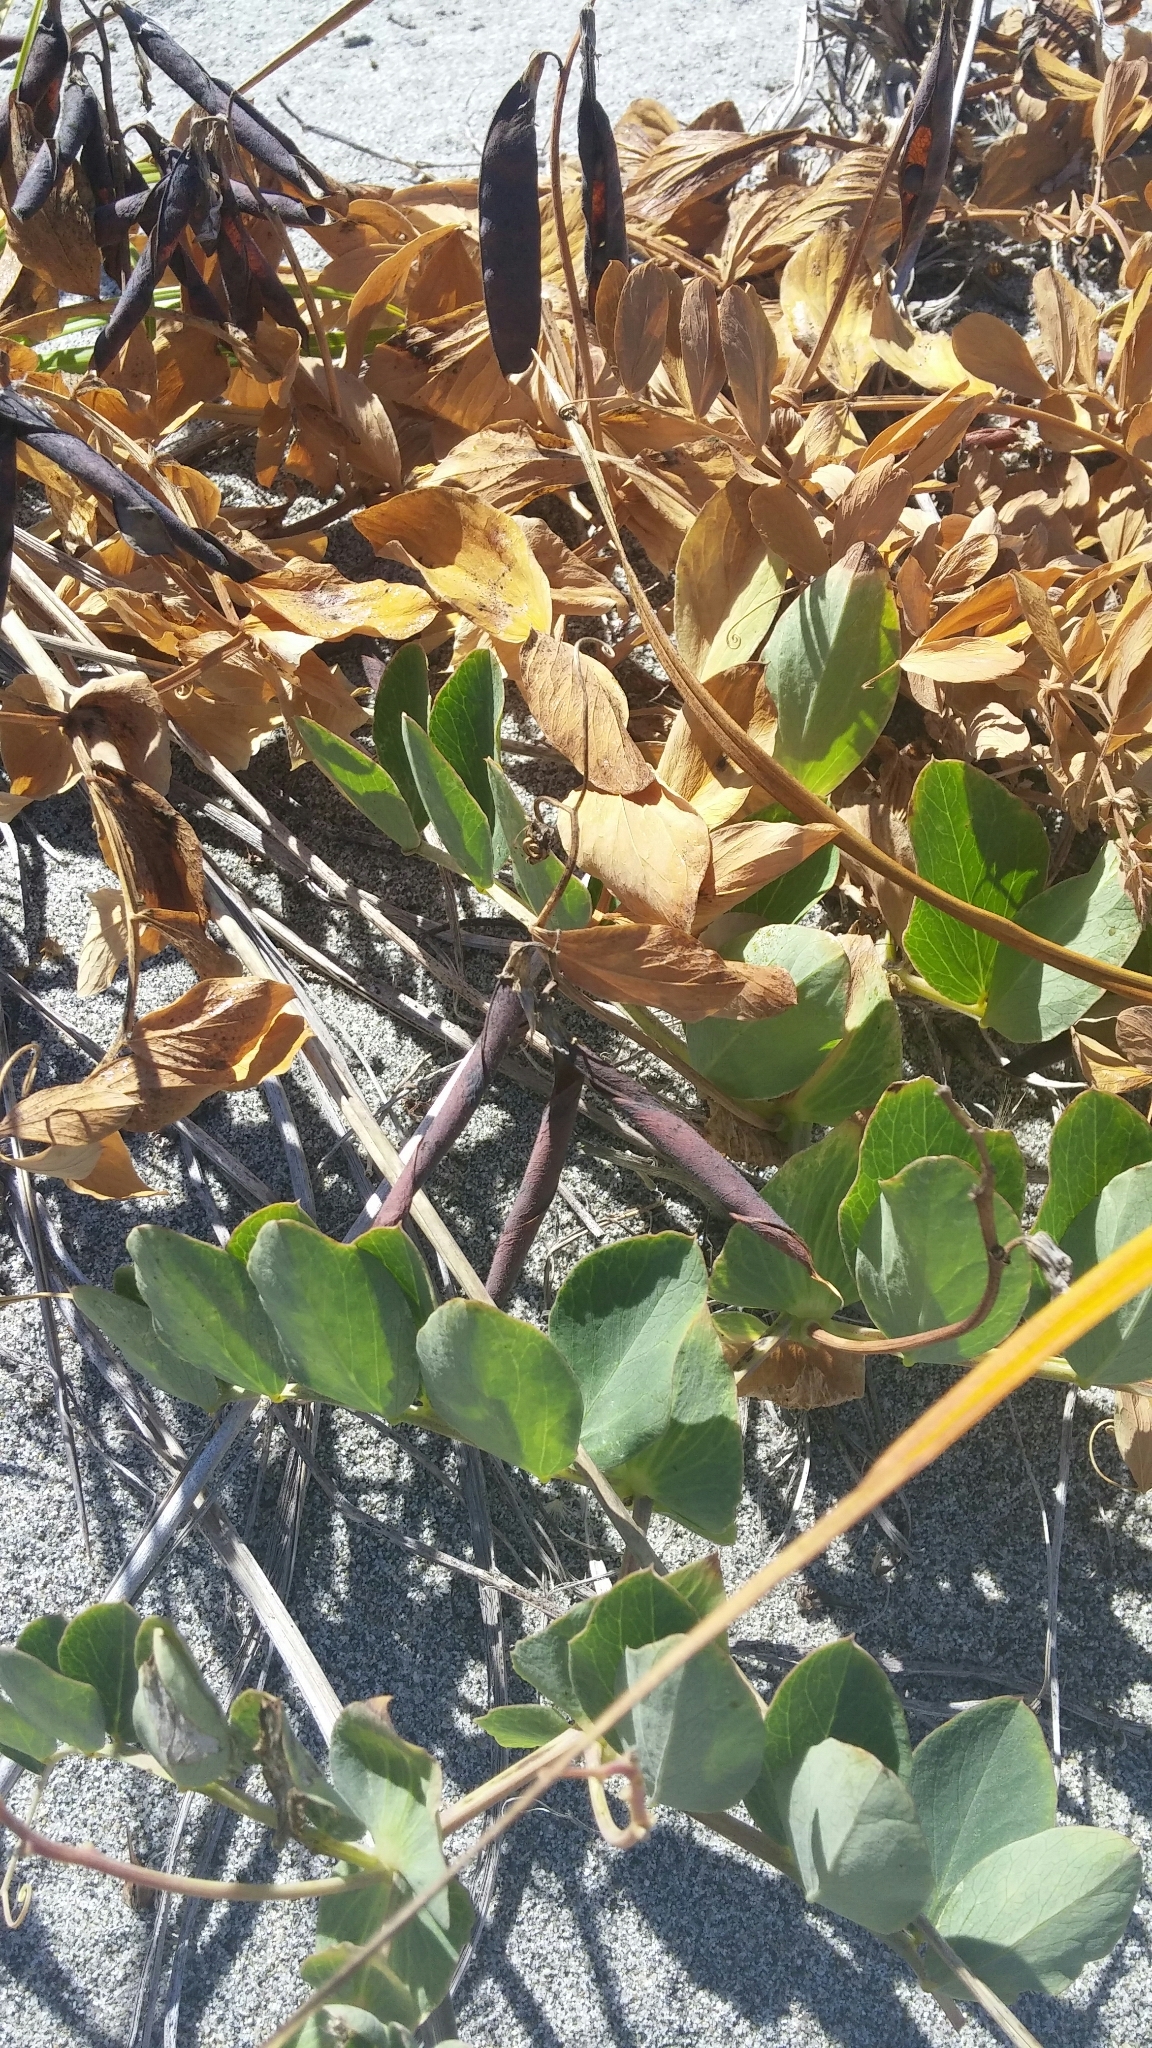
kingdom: Plantae
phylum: Tracheophyta
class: Magnoliopsida
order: Fabales
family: Fabaceae
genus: Lathyrus
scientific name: Lathyrus japonicus
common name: Sea pea
